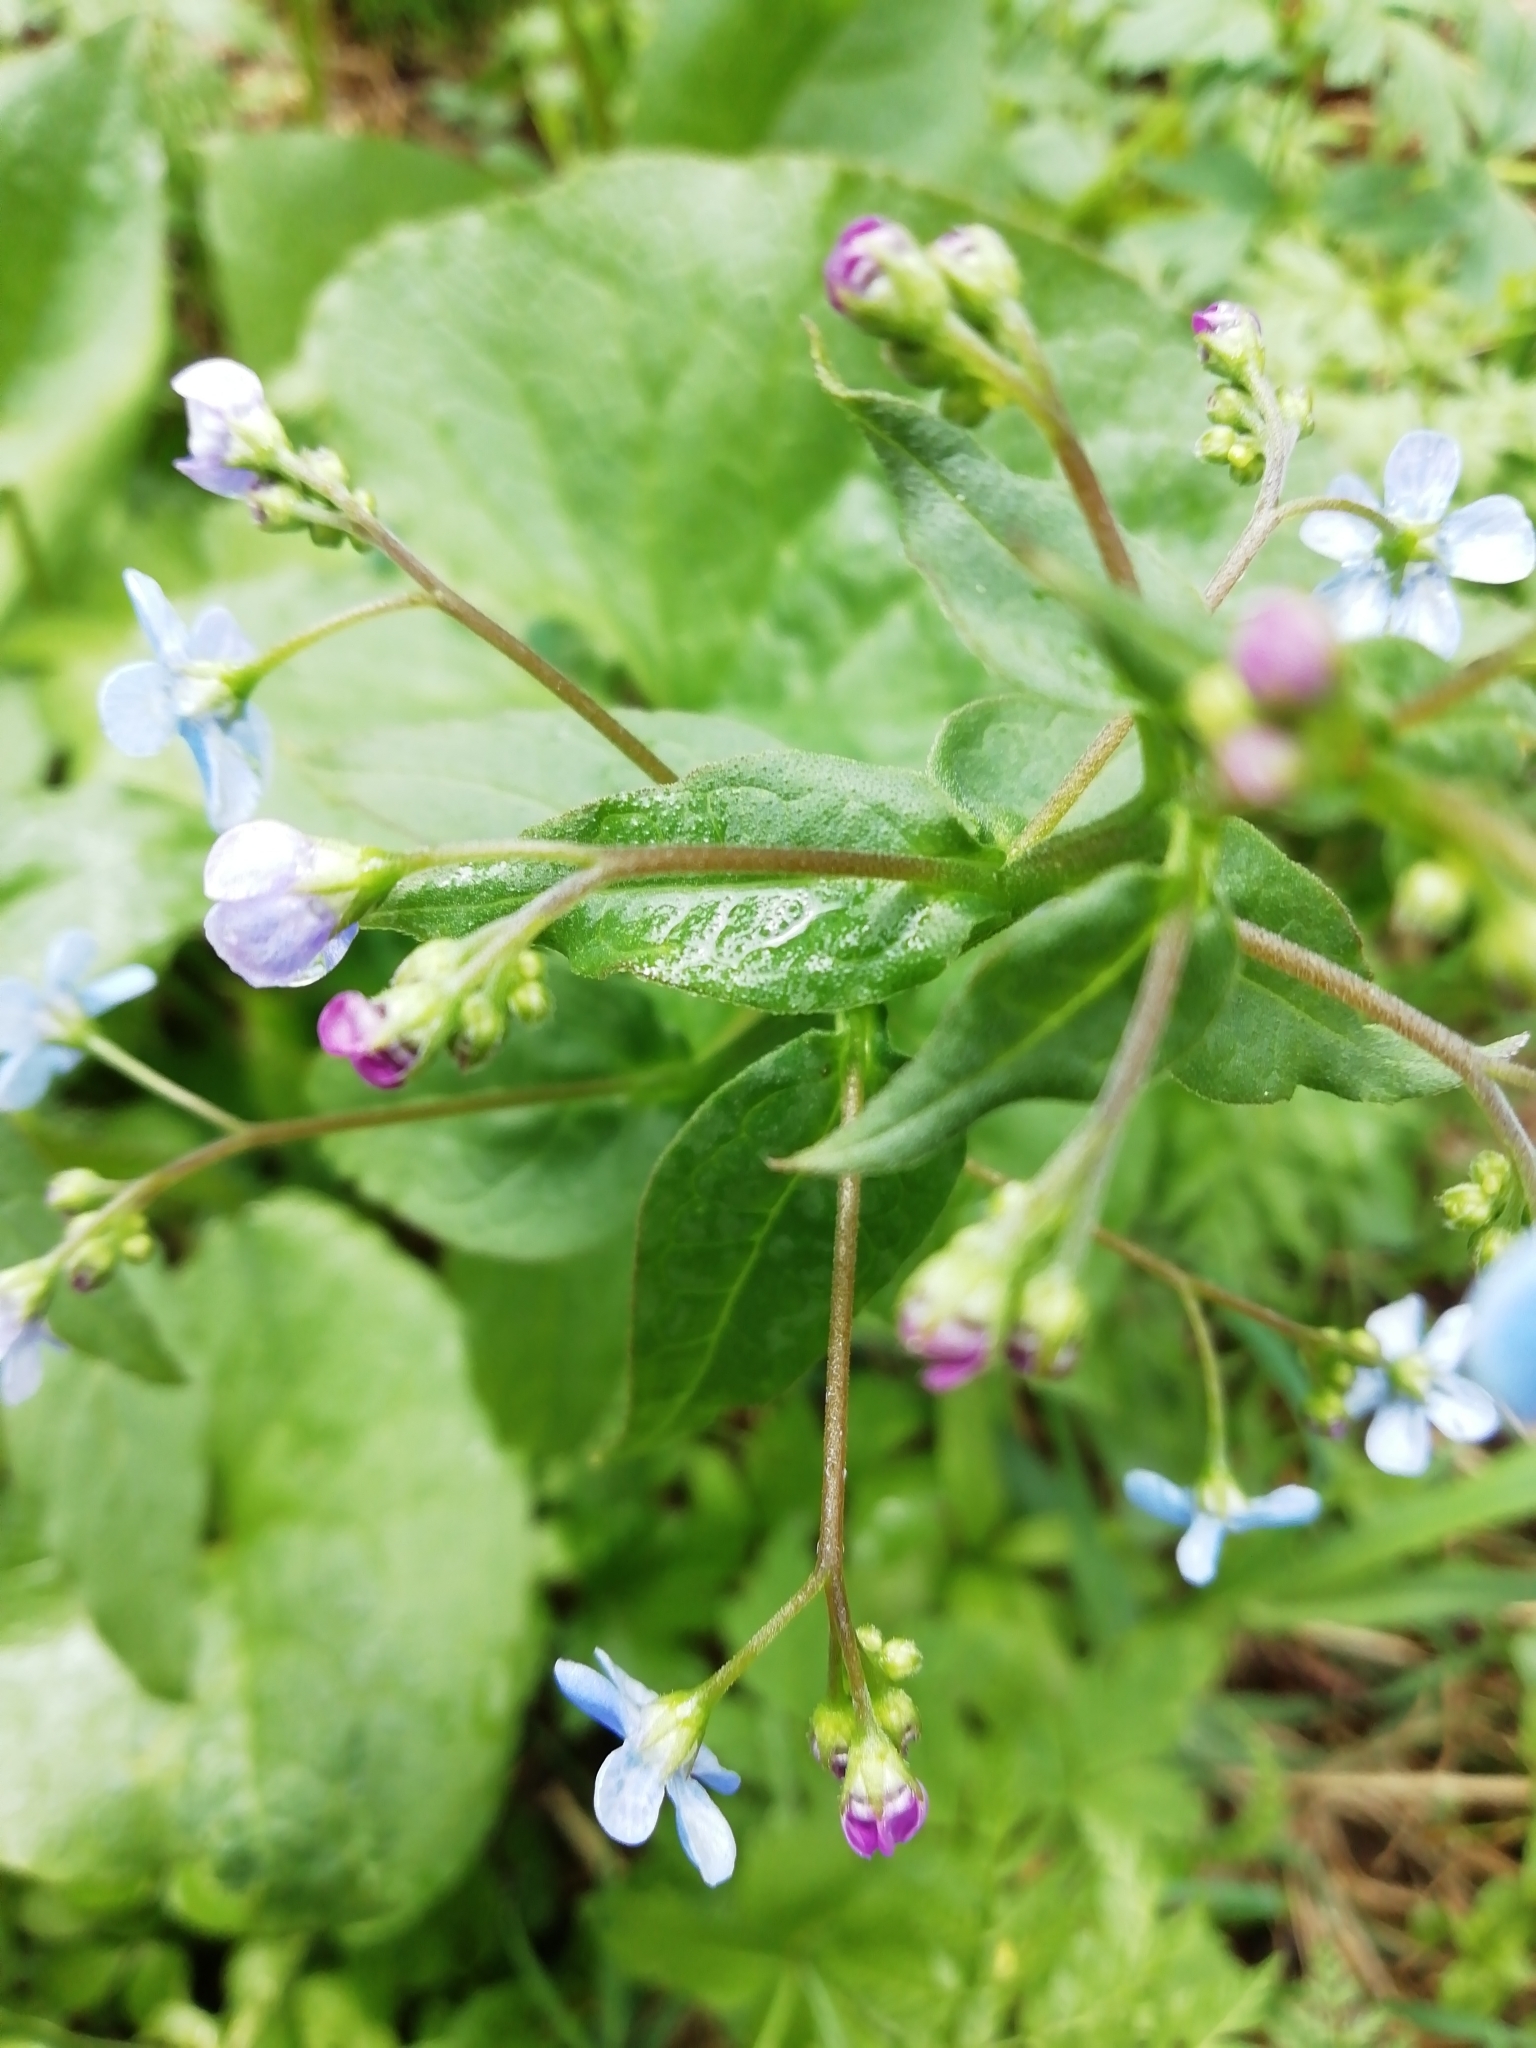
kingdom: Plantae
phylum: Tracheophyta
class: Magnoliopsida
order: Boraginales
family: Boraginaceae
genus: Brunnera
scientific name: Brunnera sibirica
